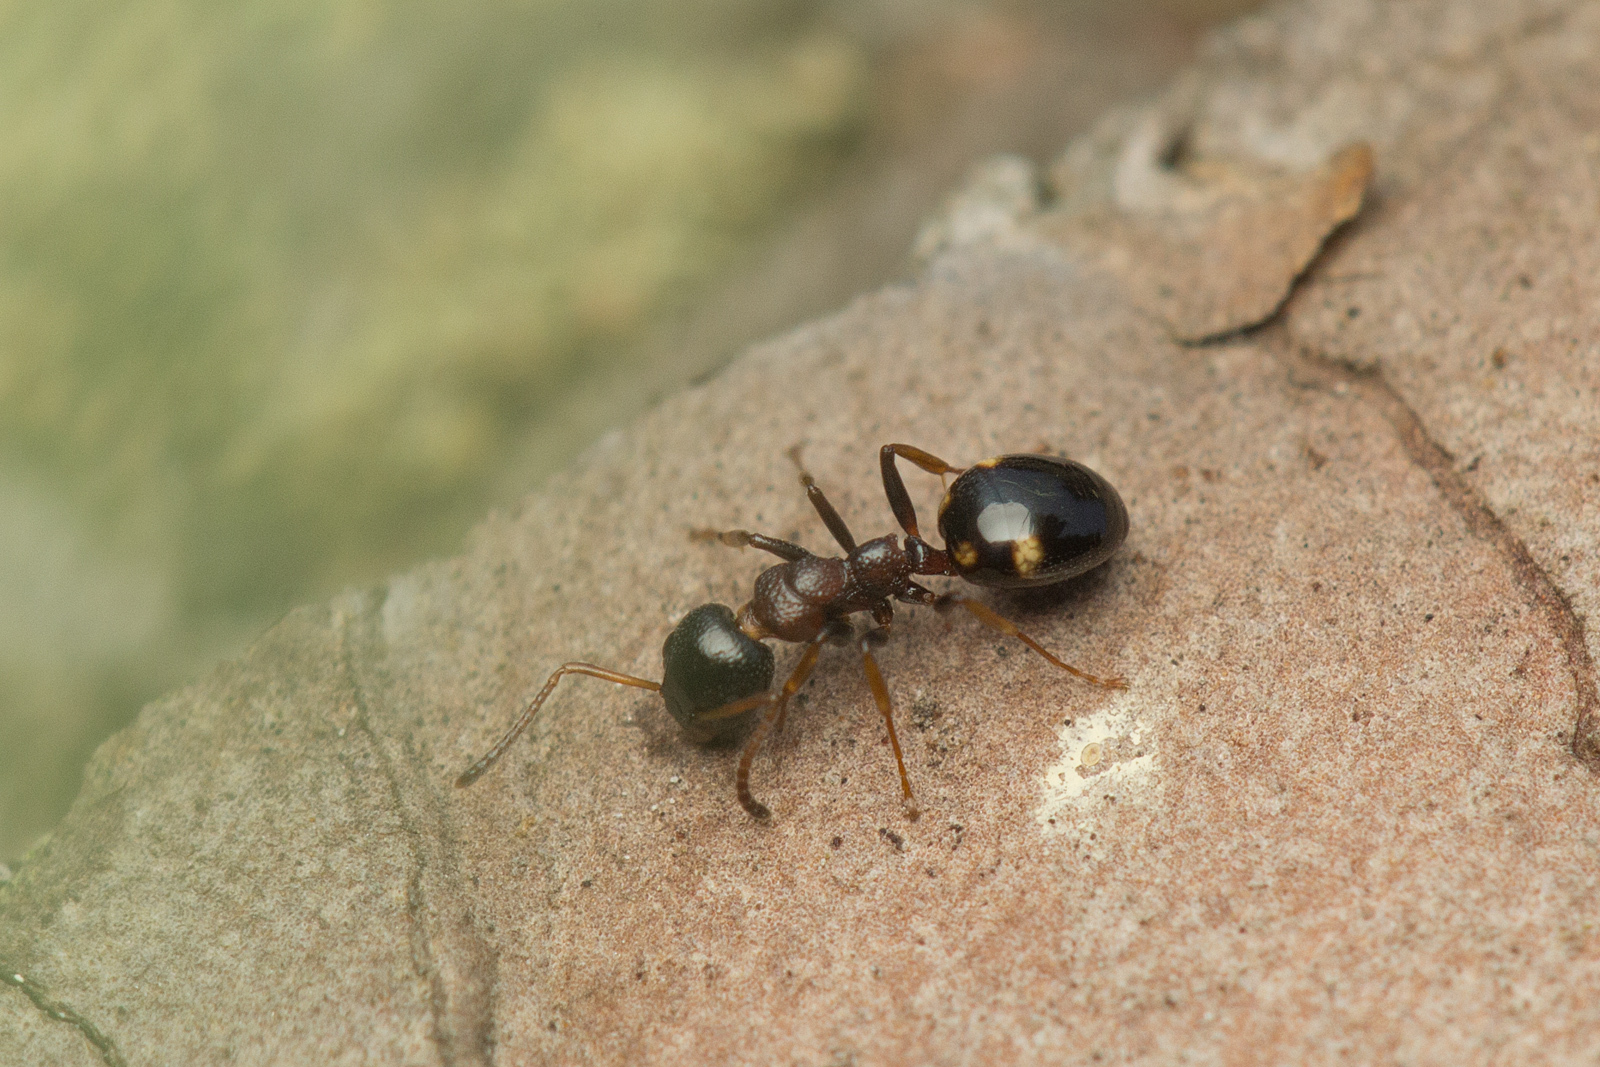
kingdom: Animalia
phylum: Arthropoda
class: Insecta
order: Hymenoptera
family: Formicidae
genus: Dolichoderus
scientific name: Dolichoderus quadripunctatus
